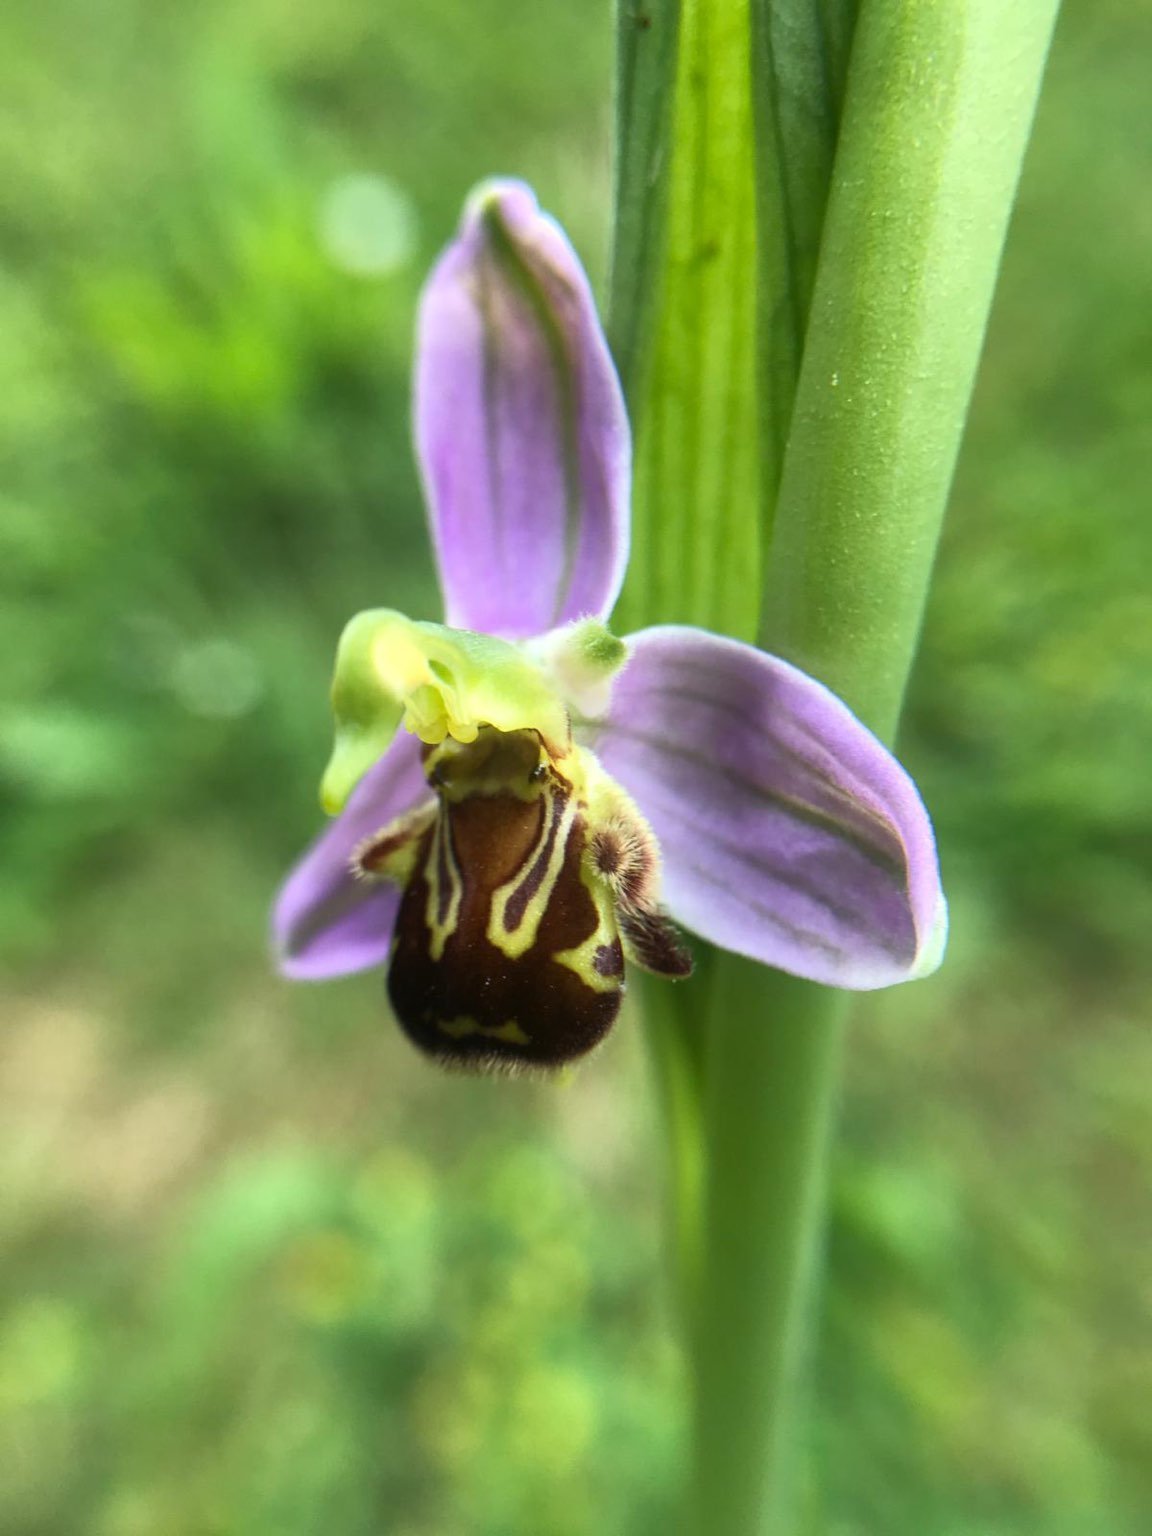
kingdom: Plantae
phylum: Tracheophyta
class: Liliopsida
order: Asparagales
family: Orchidaceae
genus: Ophrys
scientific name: Ophrys apifera
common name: Bee orchid
